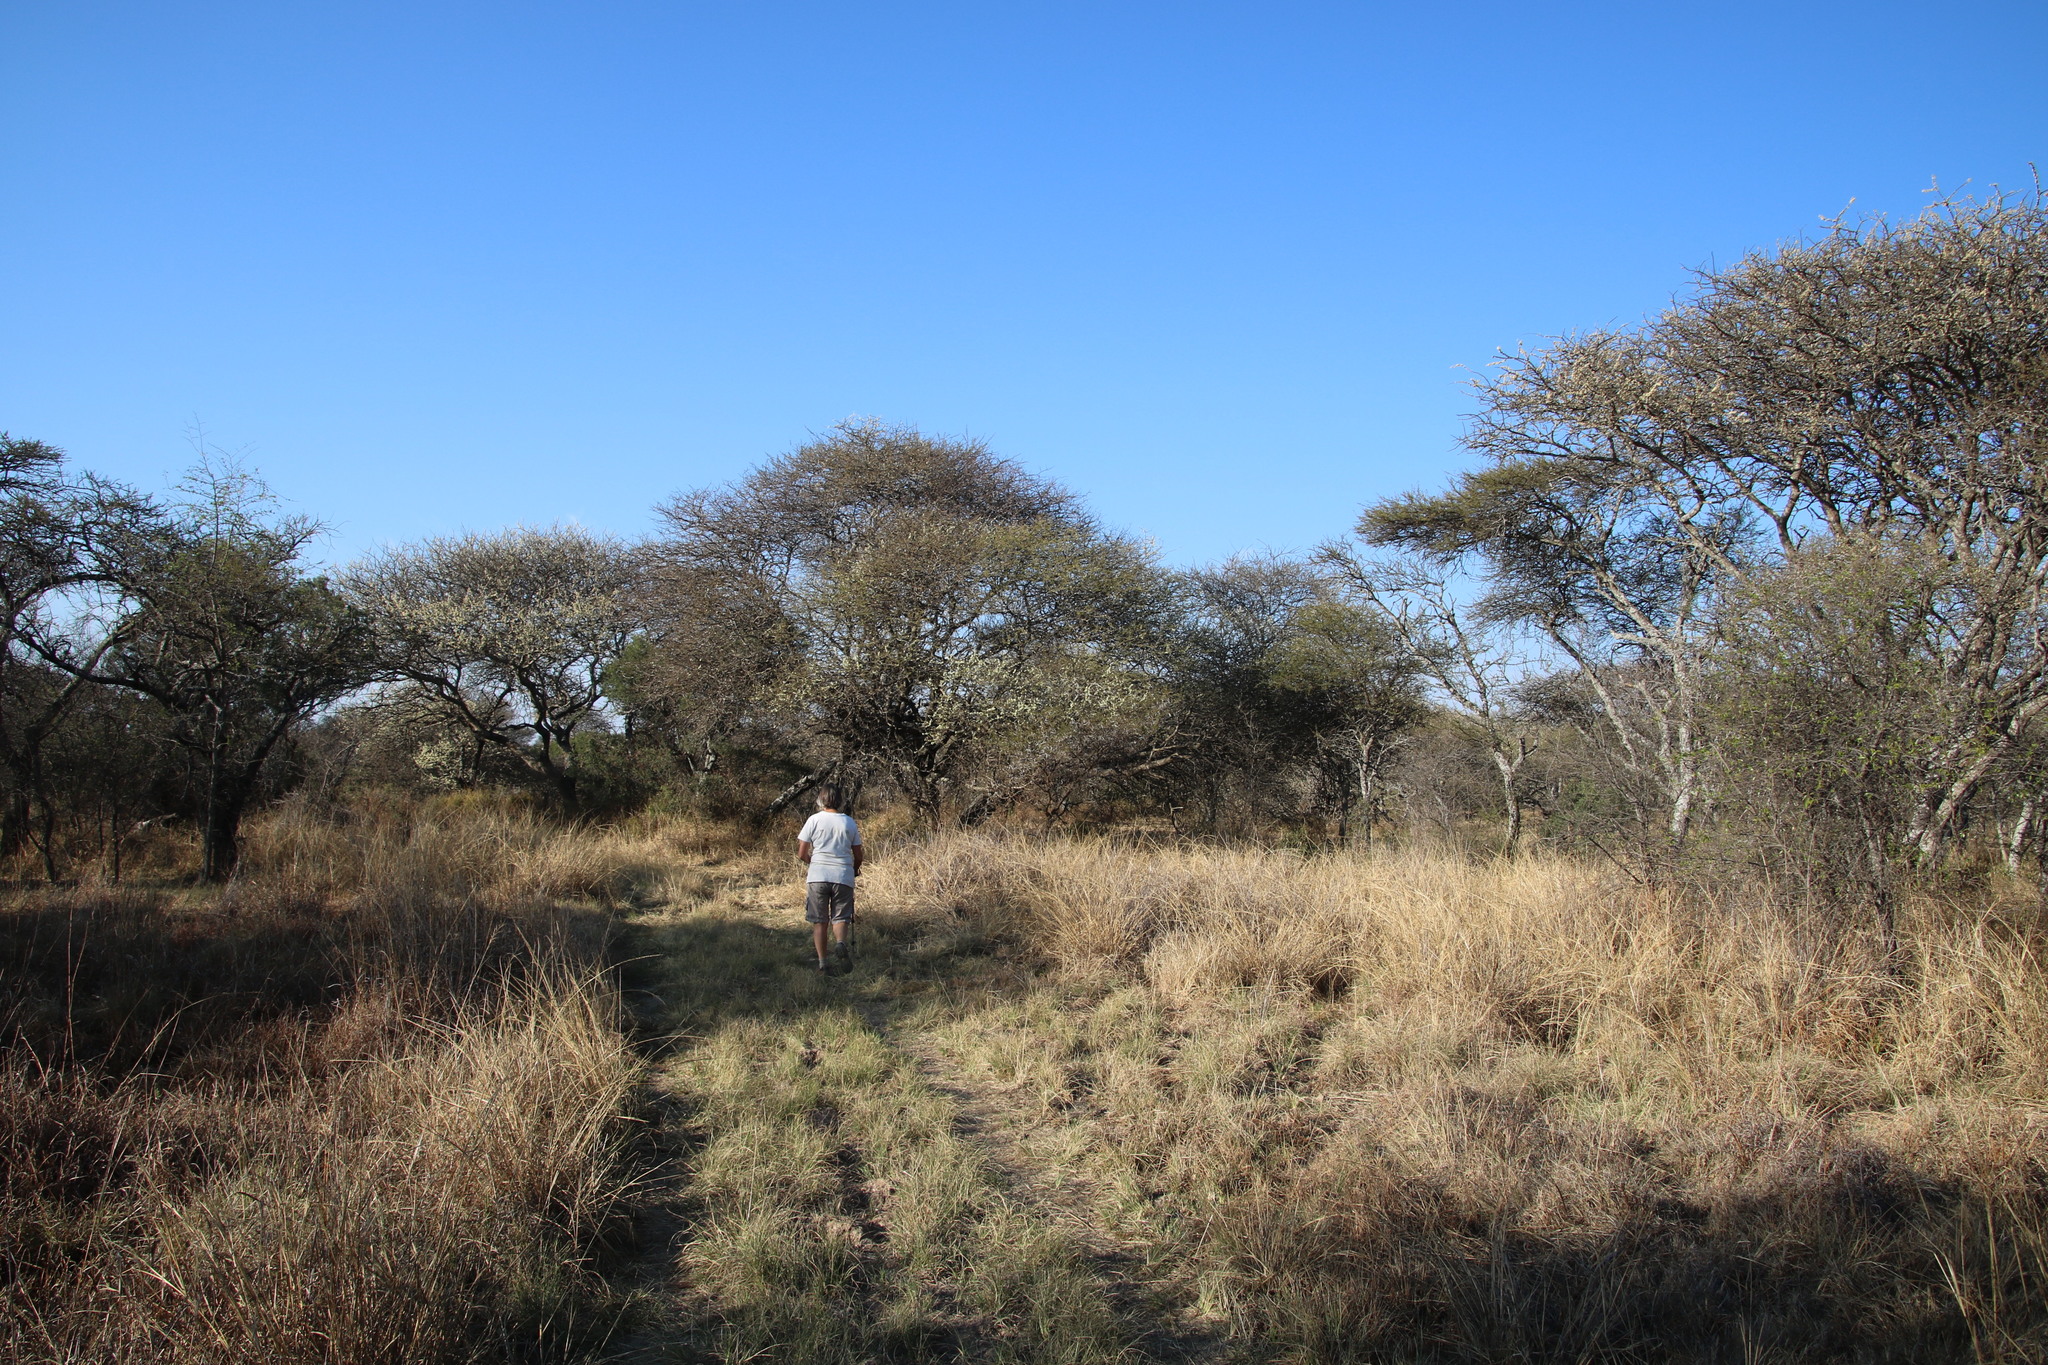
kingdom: Plantae
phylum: Tracheophyta
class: Magnoliopsida
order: Fabales
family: Fabaceae
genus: Senegalia
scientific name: Senegalia mellifera
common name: Hookthorn
